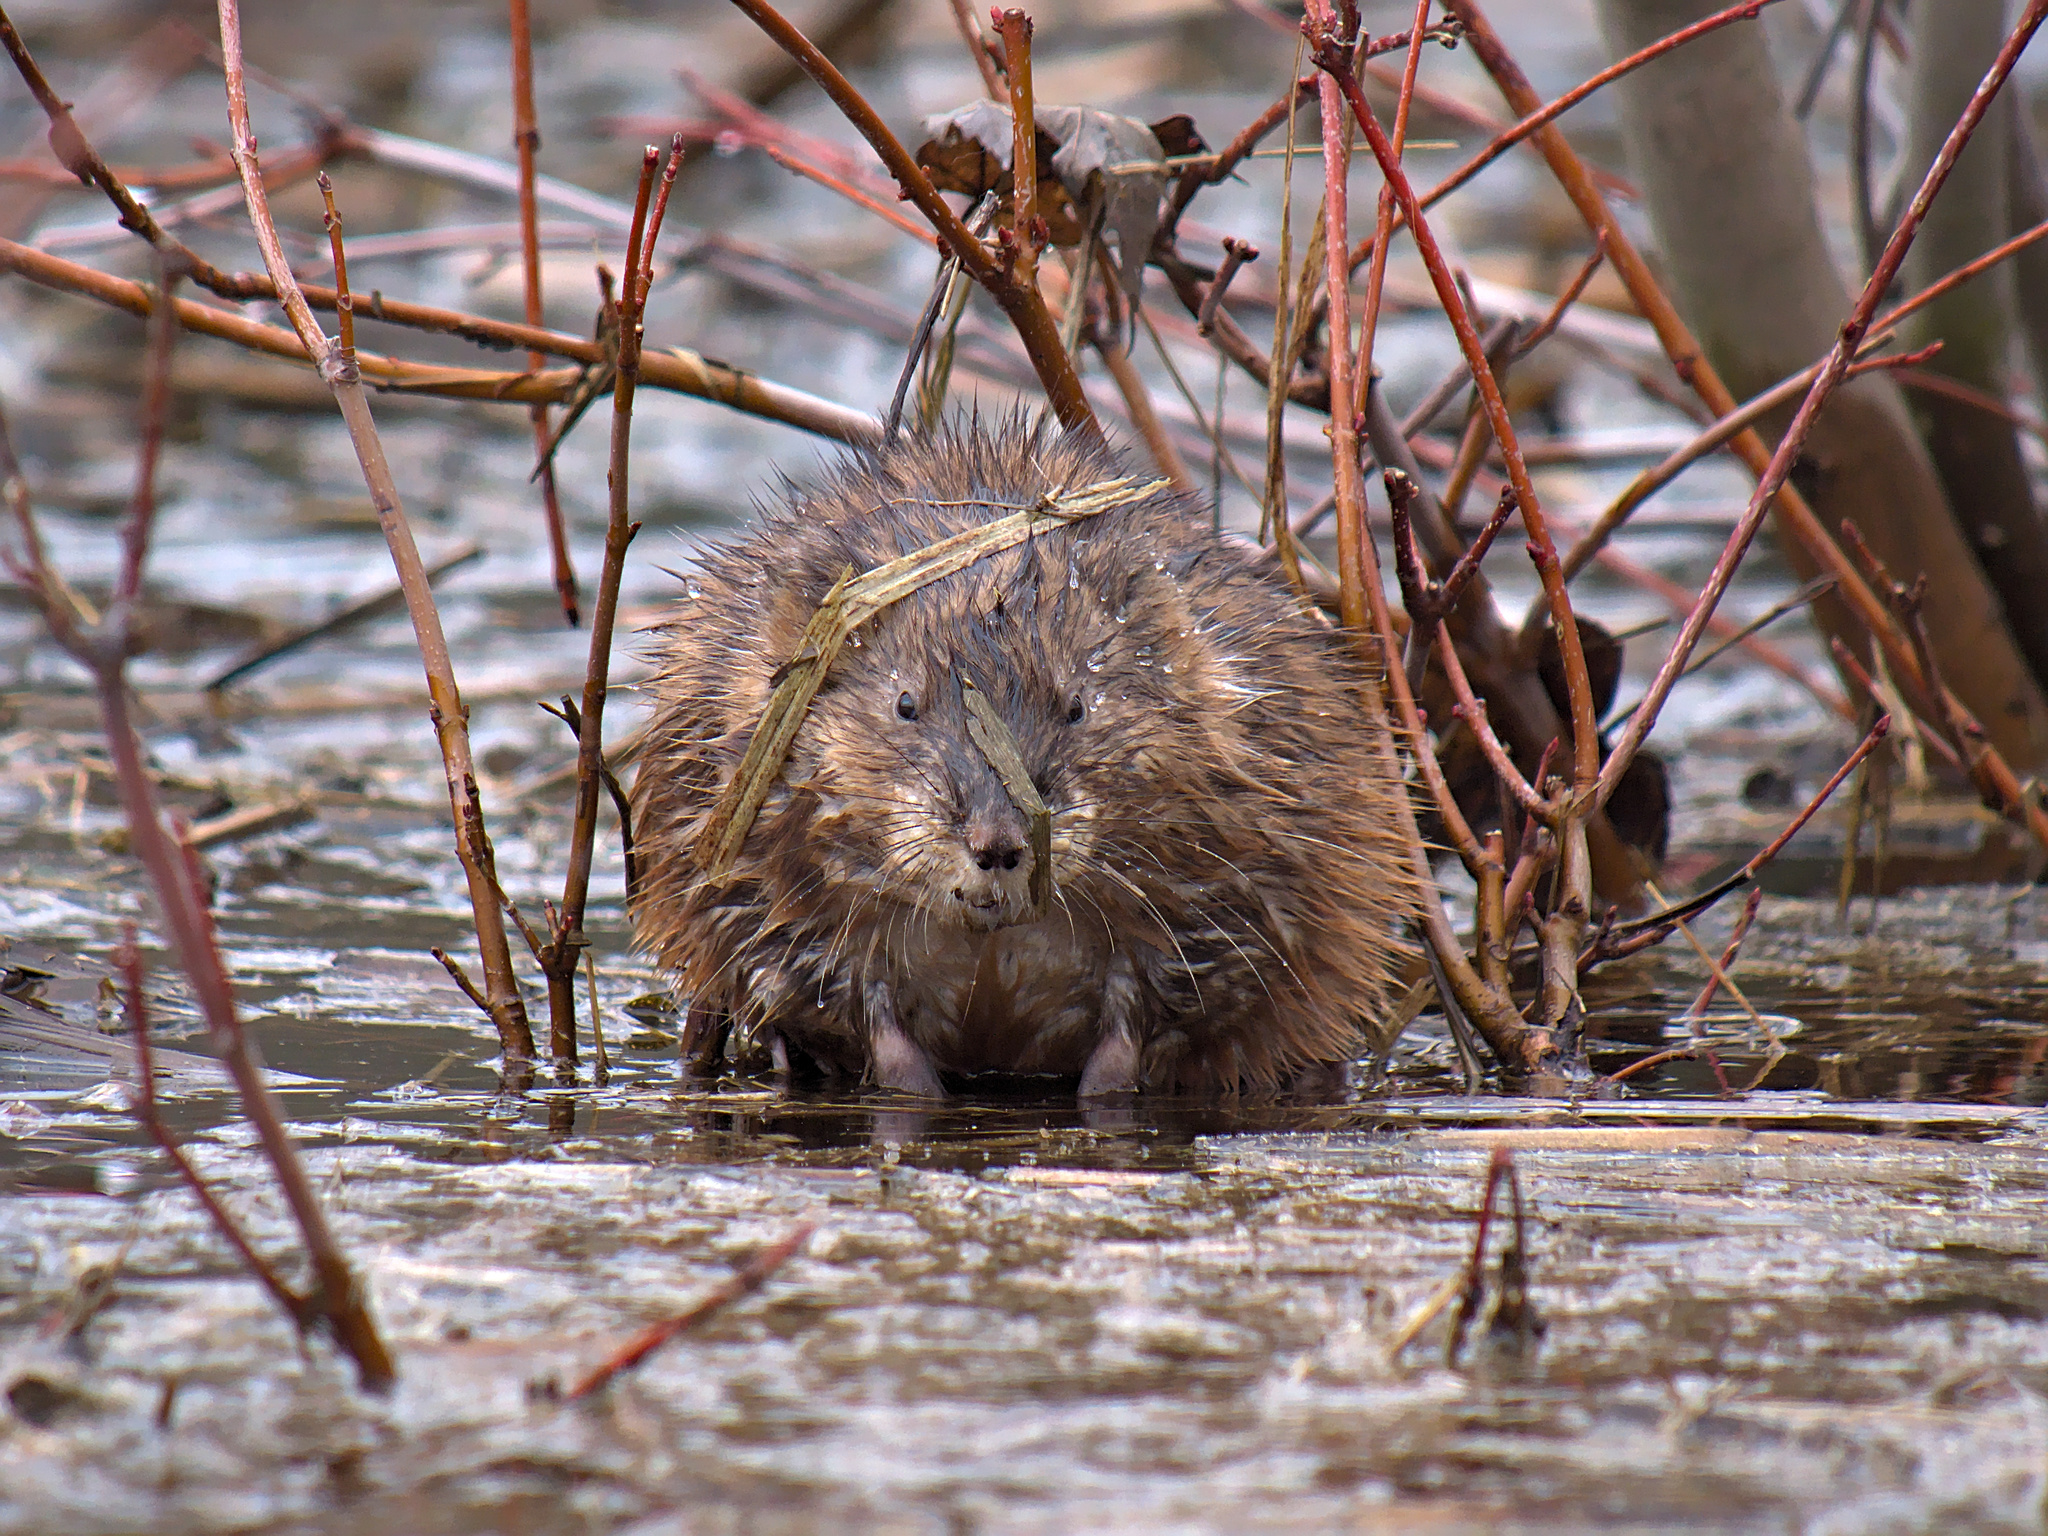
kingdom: Animalia
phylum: Chordata
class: Mammalia
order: Rodentia
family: Cricetidae
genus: Ondatra
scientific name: Ondatra zibethicus
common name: Muskrat
